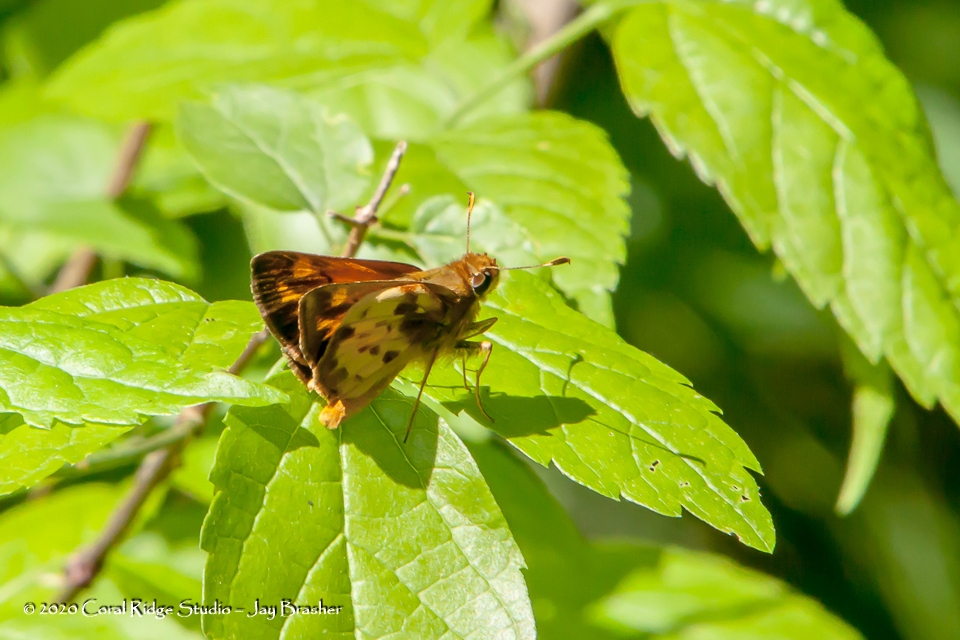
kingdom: Animalia
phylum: Arthropoda
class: Insecta
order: Lepidoptera
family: Hesperiidae
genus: Lon
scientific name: Lon zabulon
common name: Zabulon skipper
